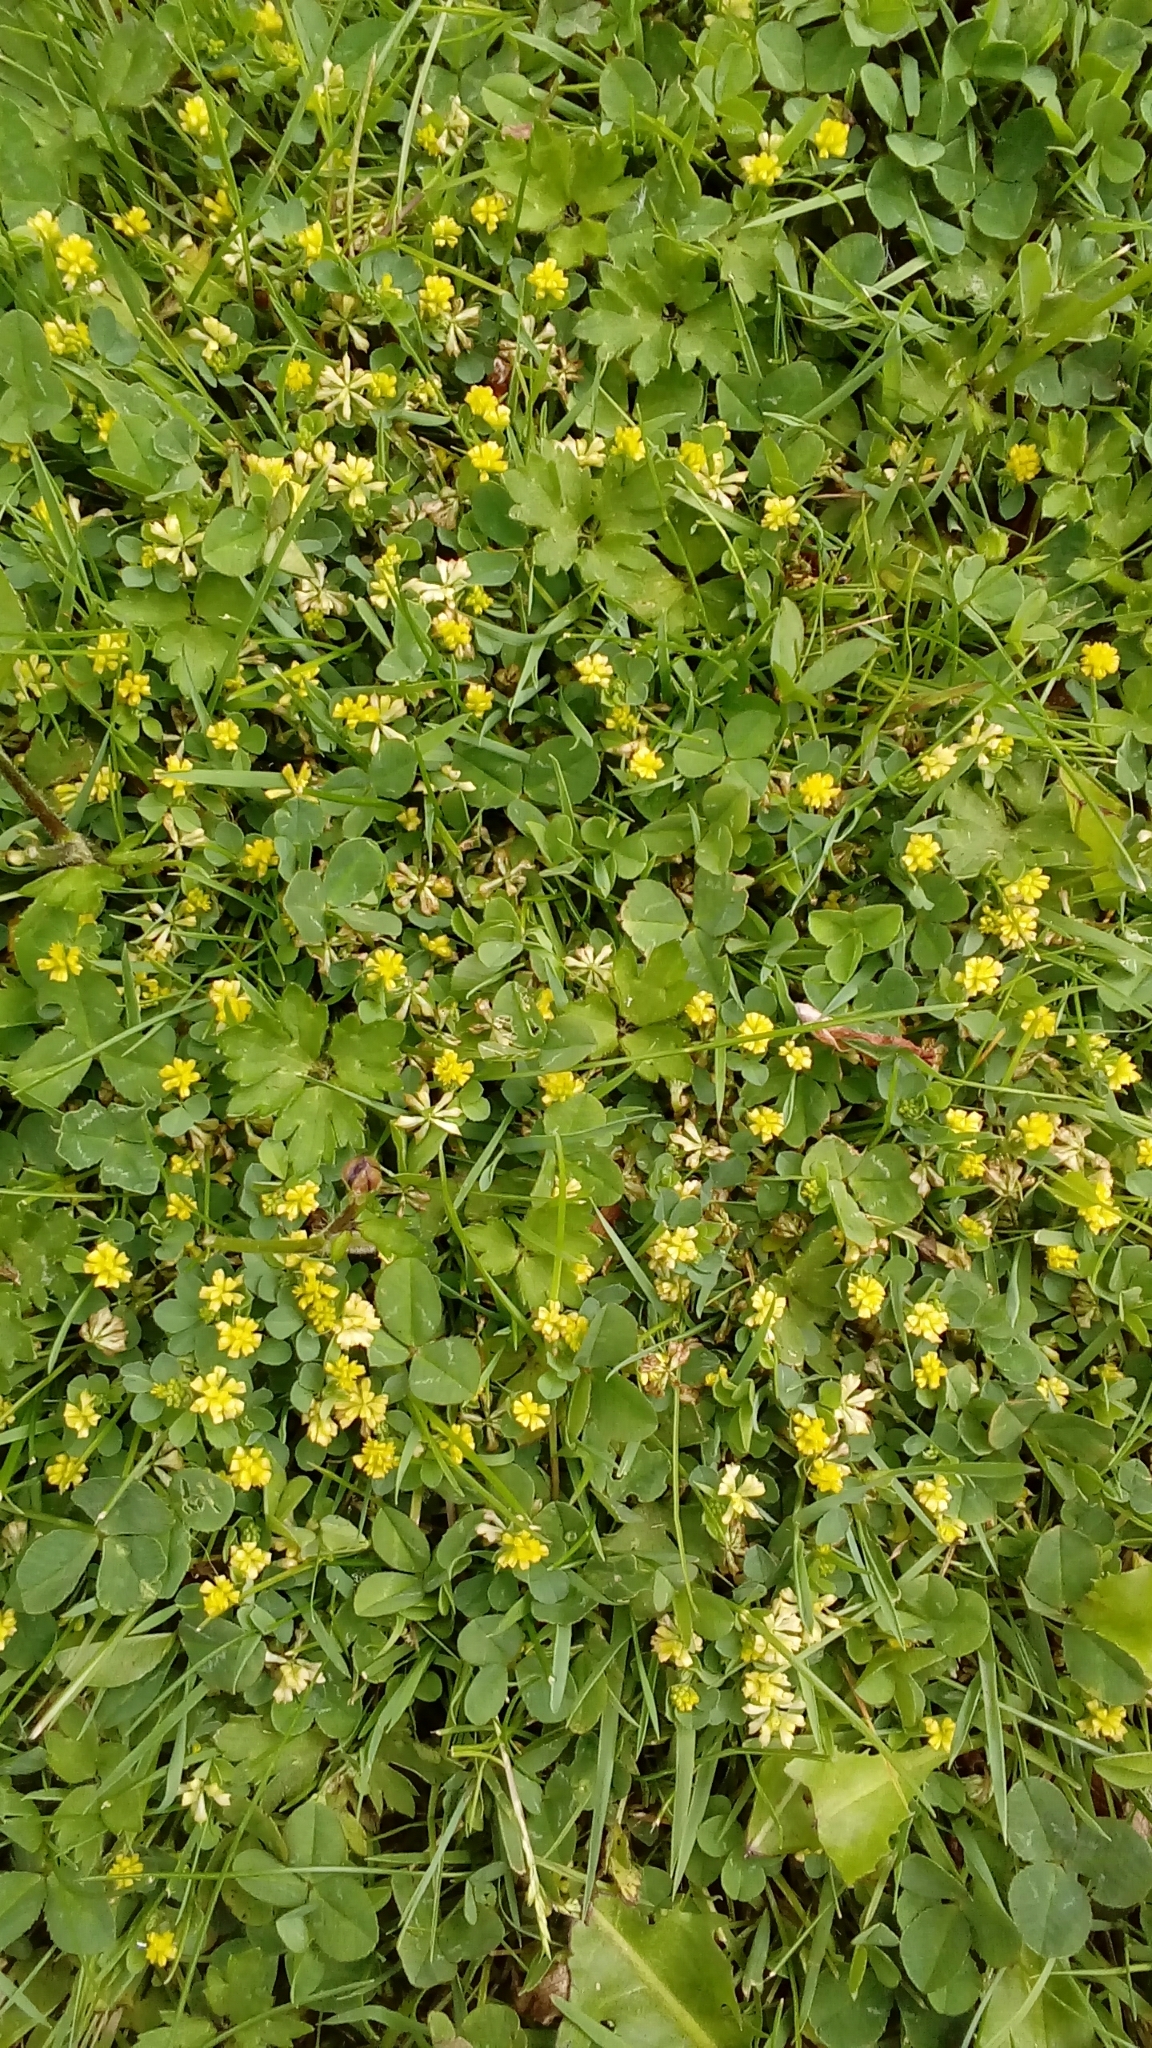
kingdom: Plantae
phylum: Tracheophyta
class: Magnoliopsida
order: Fabales
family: Fabaceae
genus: Trifolium
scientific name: Trifolium dubium
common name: Suckling clover
